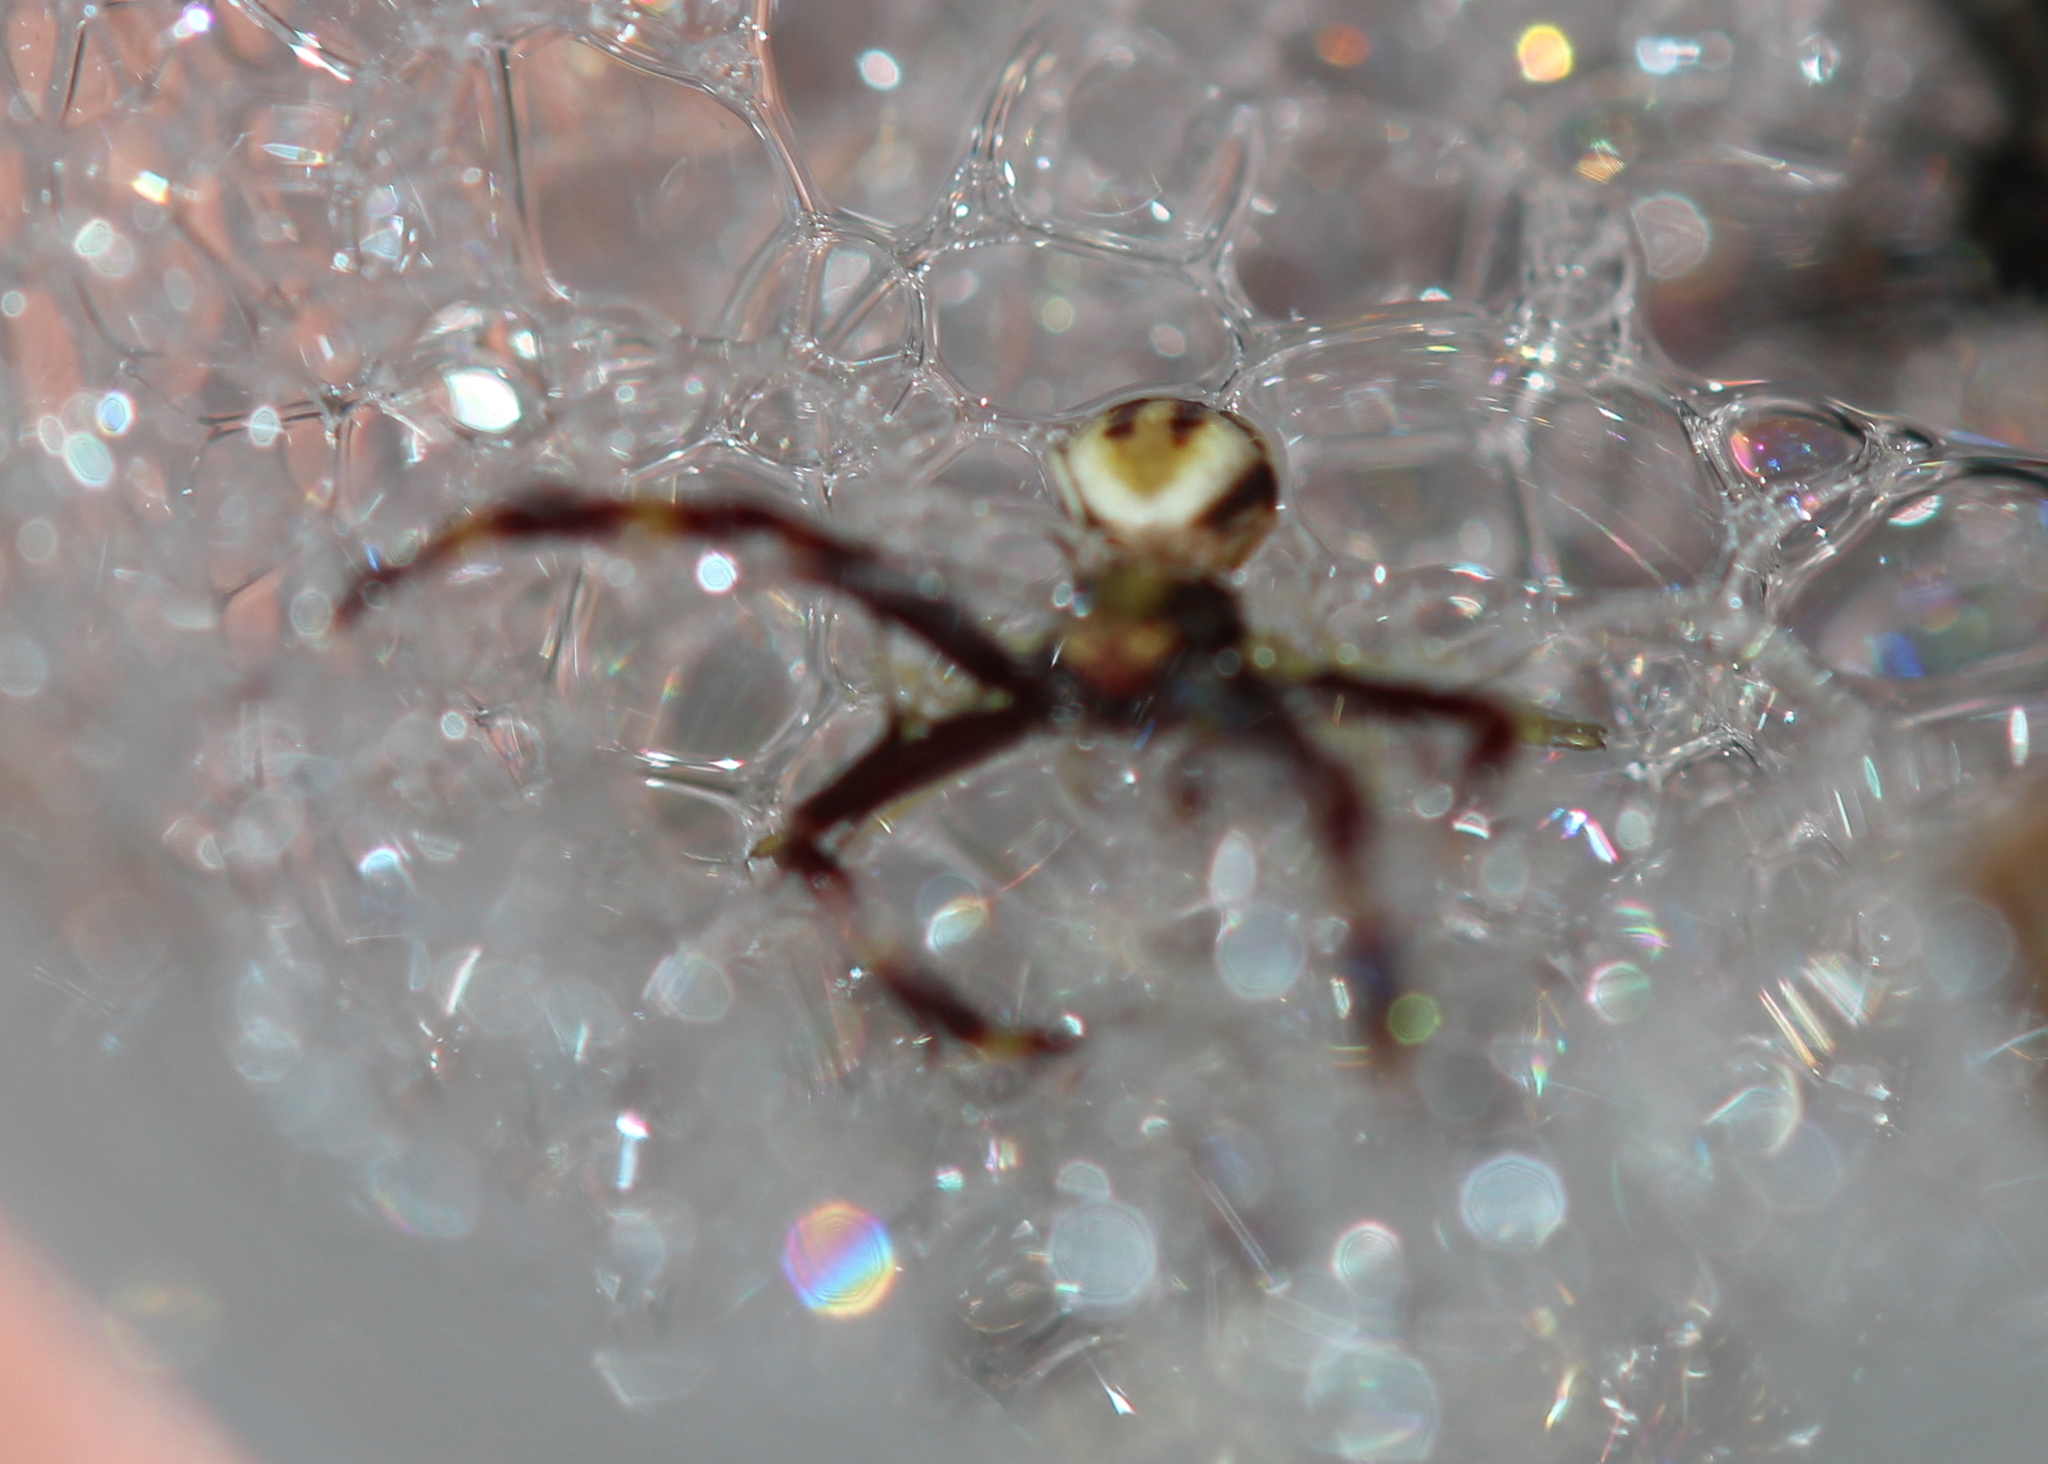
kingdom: Animalia
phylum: Arthropoda
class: Arachnida
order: Araneae
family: Thomisidae
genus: Misumena
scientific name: Misumena vatia
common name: Goldenrod crab spider
